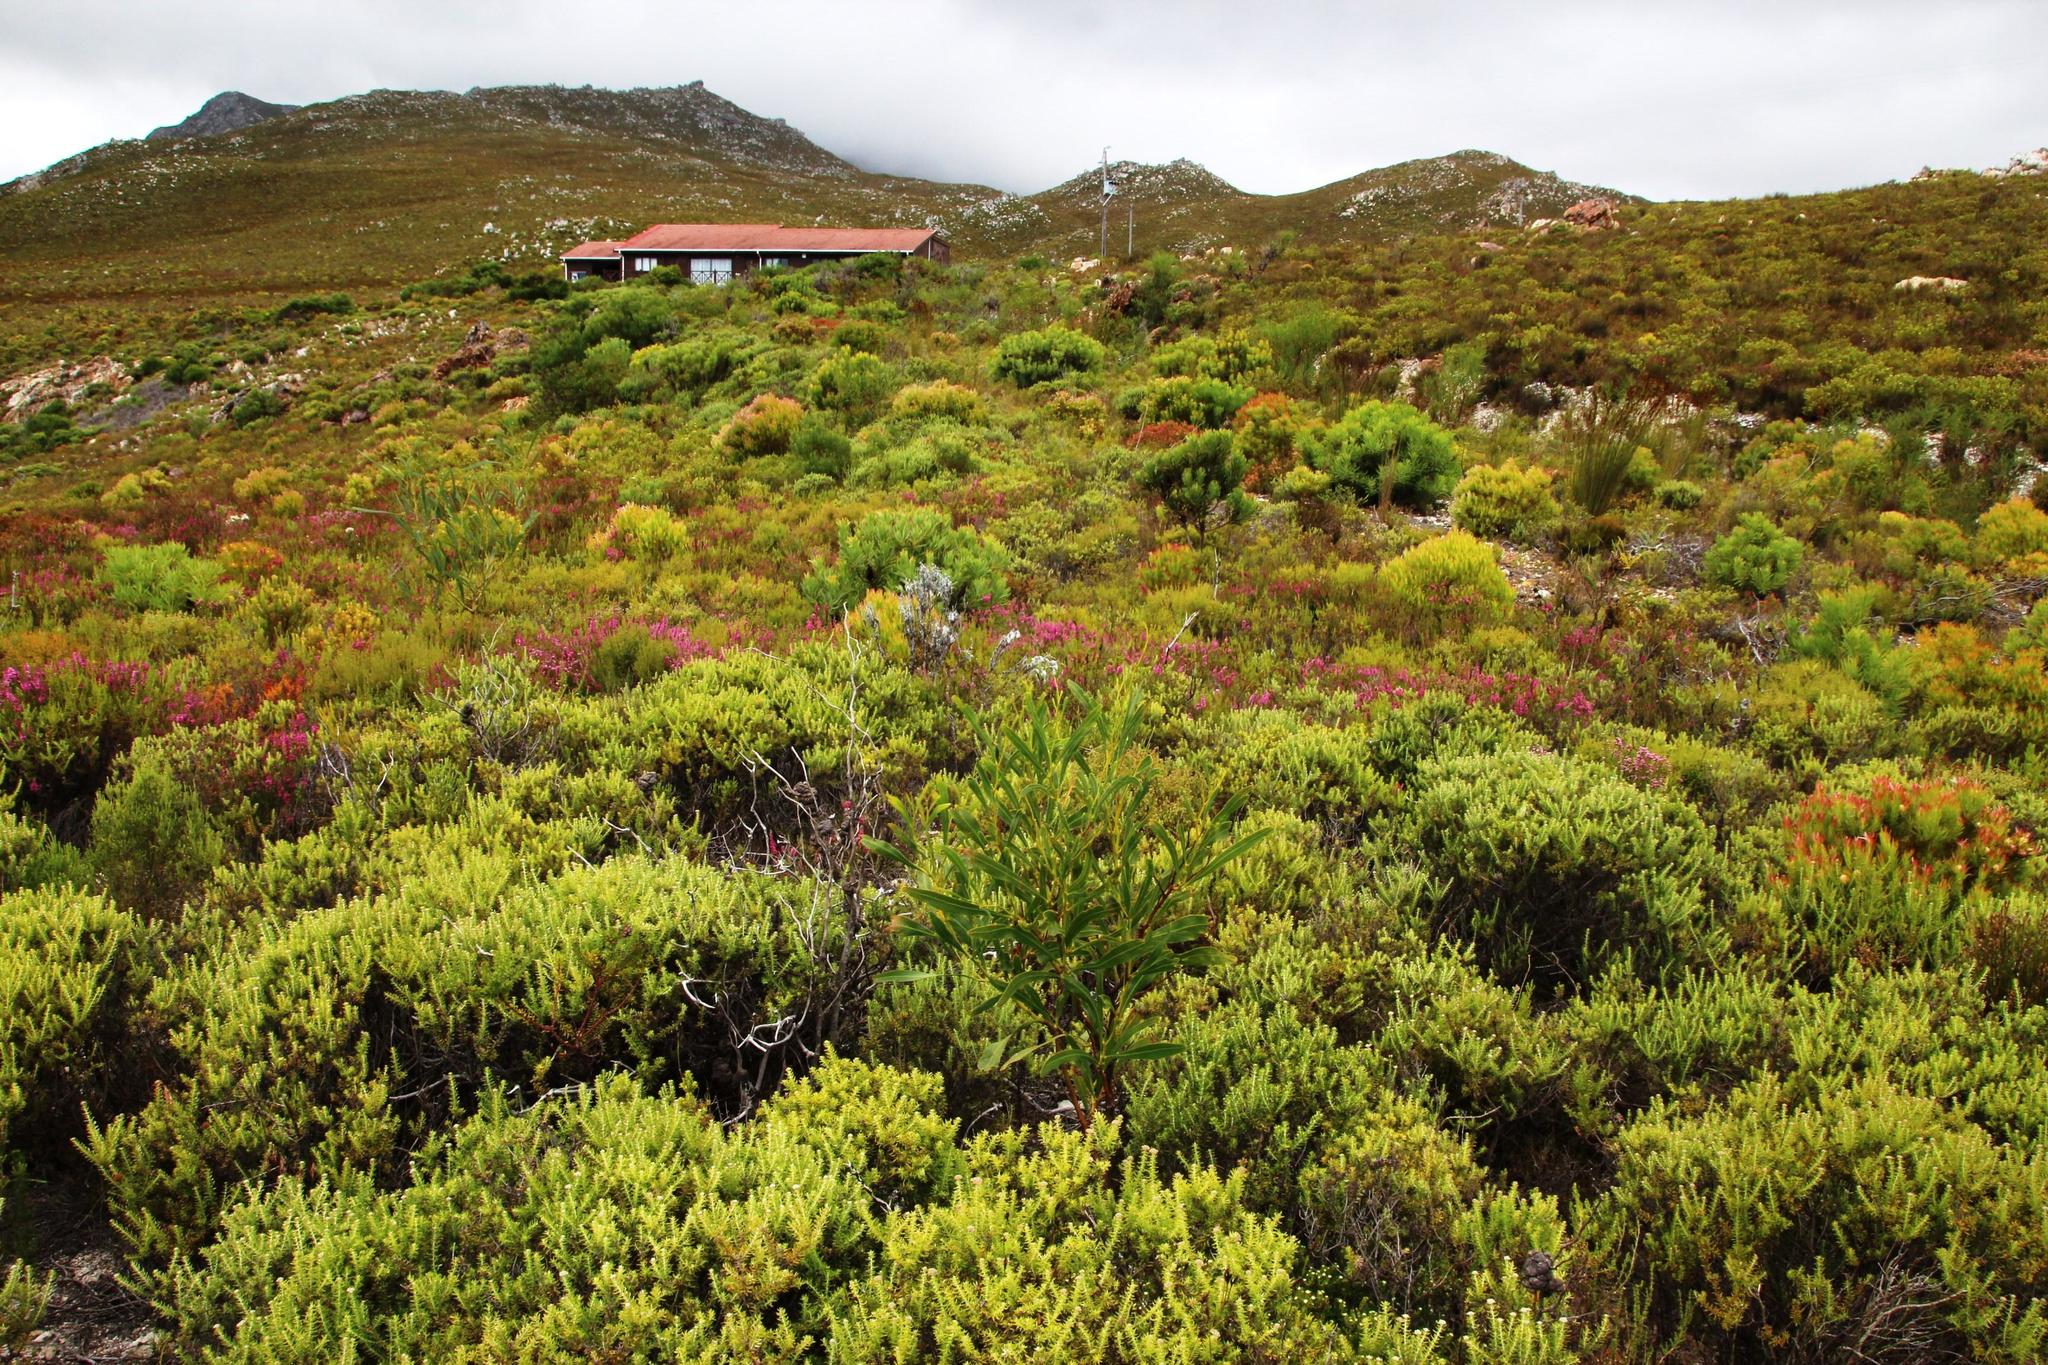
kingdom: Plantae
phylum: Tracheophyta
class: Magnoliopsida
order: Fabales
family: Fabaceae
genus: Acacia
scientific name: Acacia saligna
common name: Orange wattle
